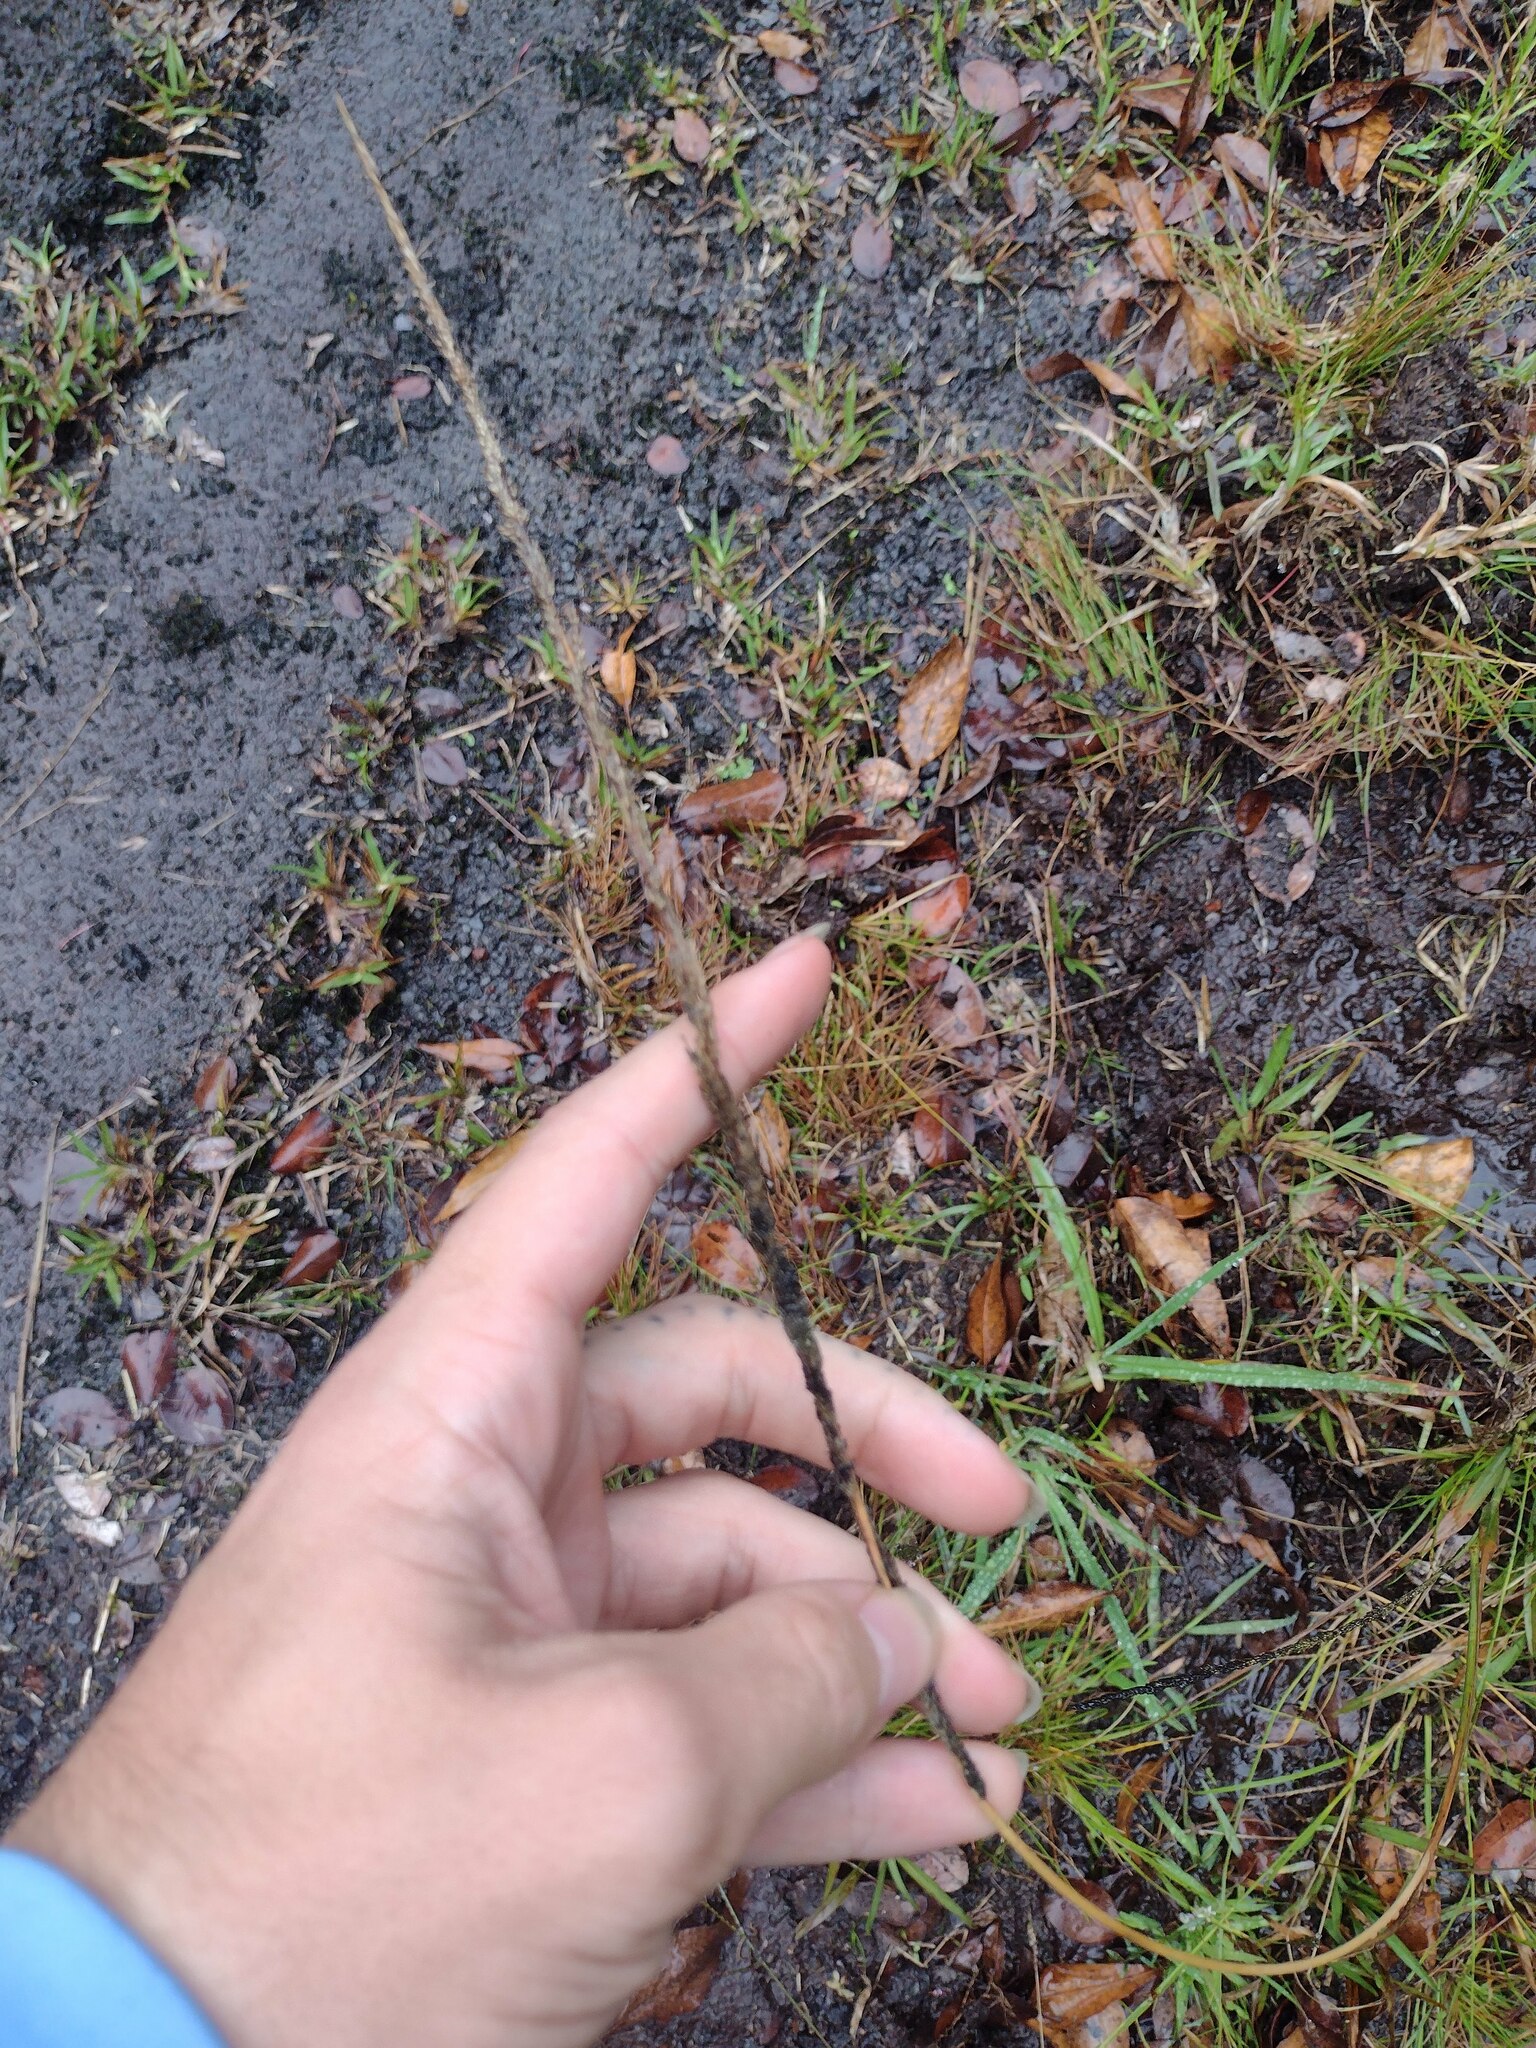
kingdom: Plantae
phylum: Tracheophyta
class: Liliopsida
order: Poales
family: Poaceae
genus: Sporobolus
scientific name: Sporobolus africanus
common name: African dropseed
